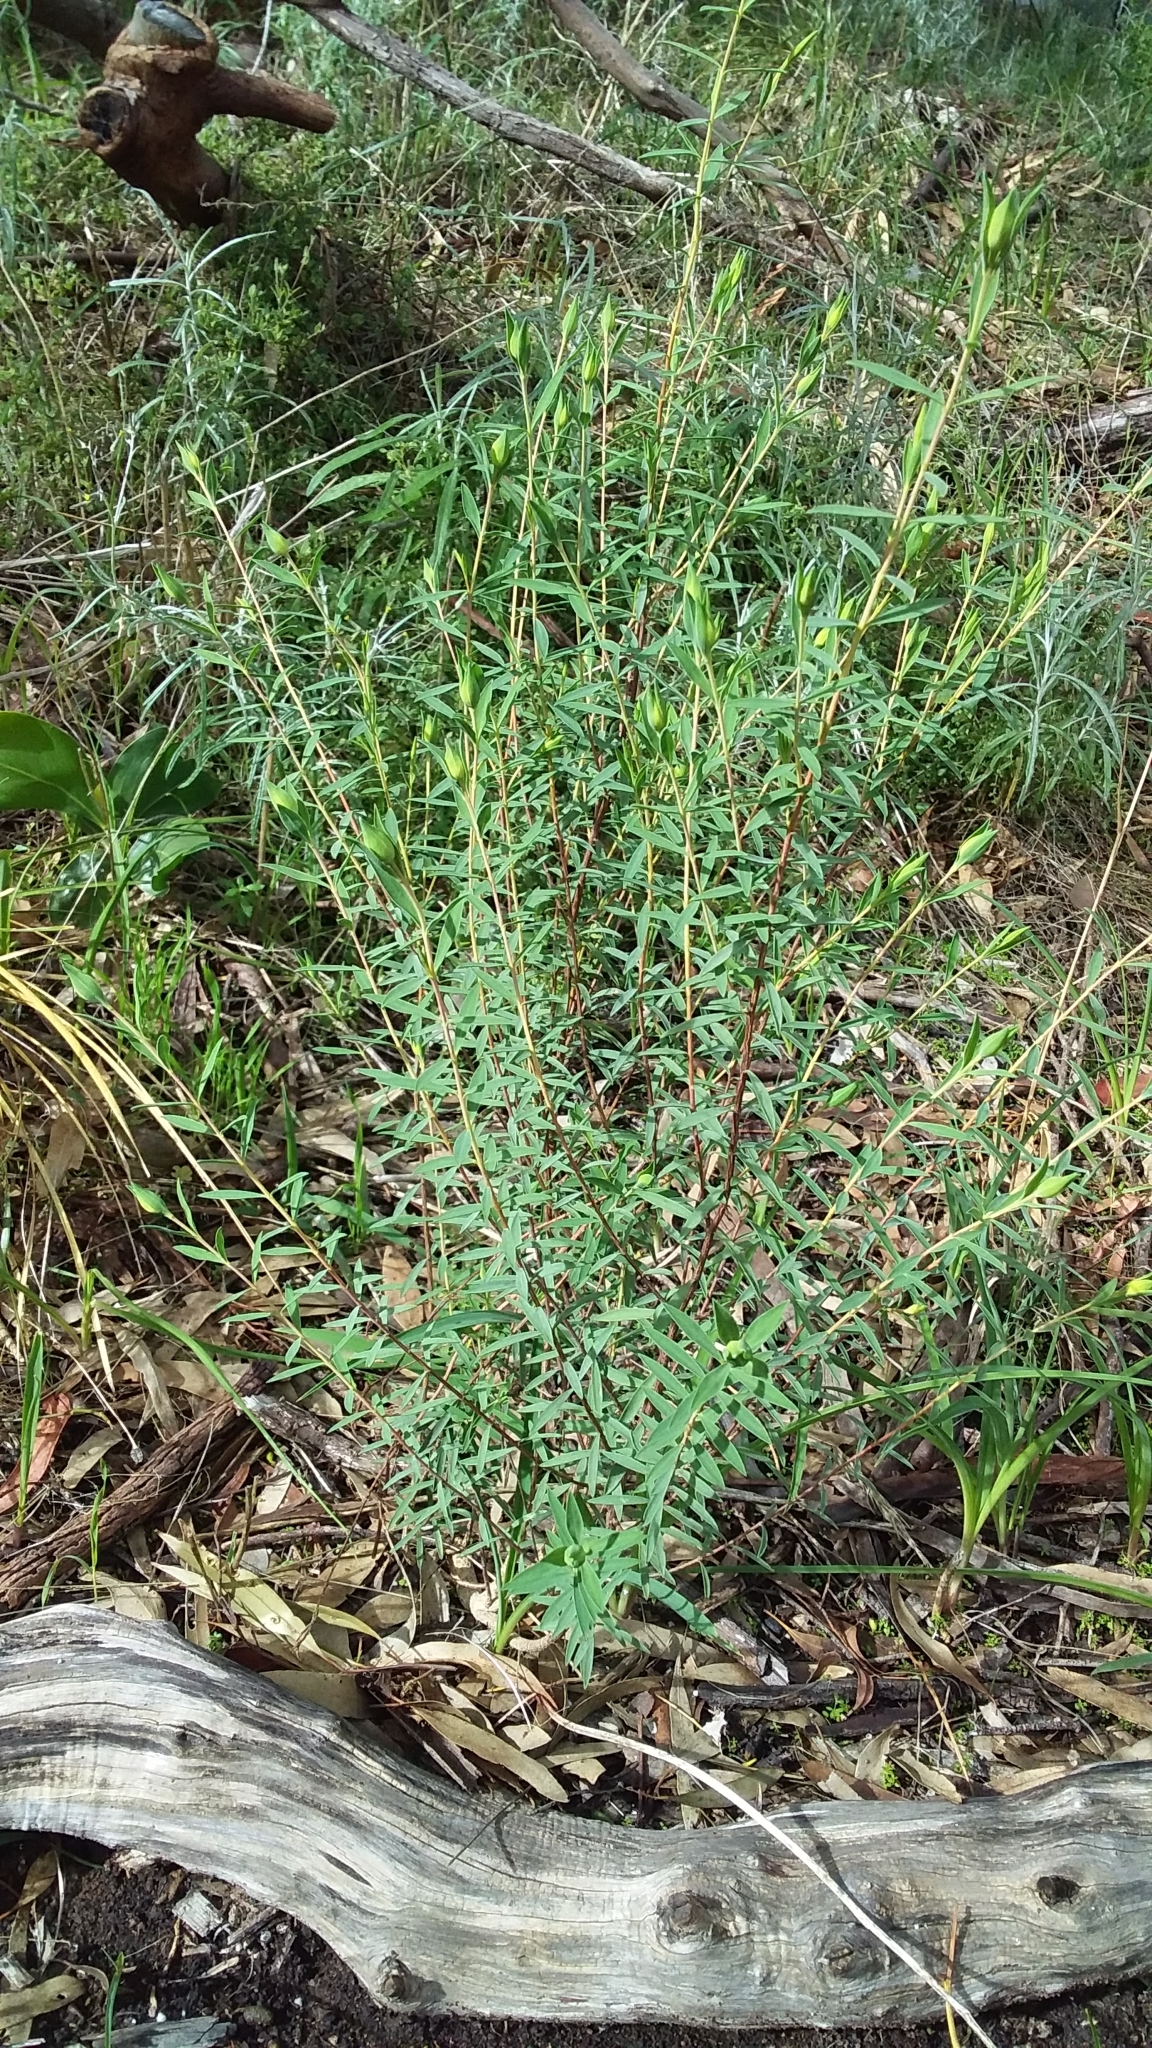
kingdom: Plantae
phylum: Tracheophyta
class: Magnoliopsida
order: Malvales
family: Thymelaeaceae
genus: Pimelea
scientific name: Pimelea stricta
